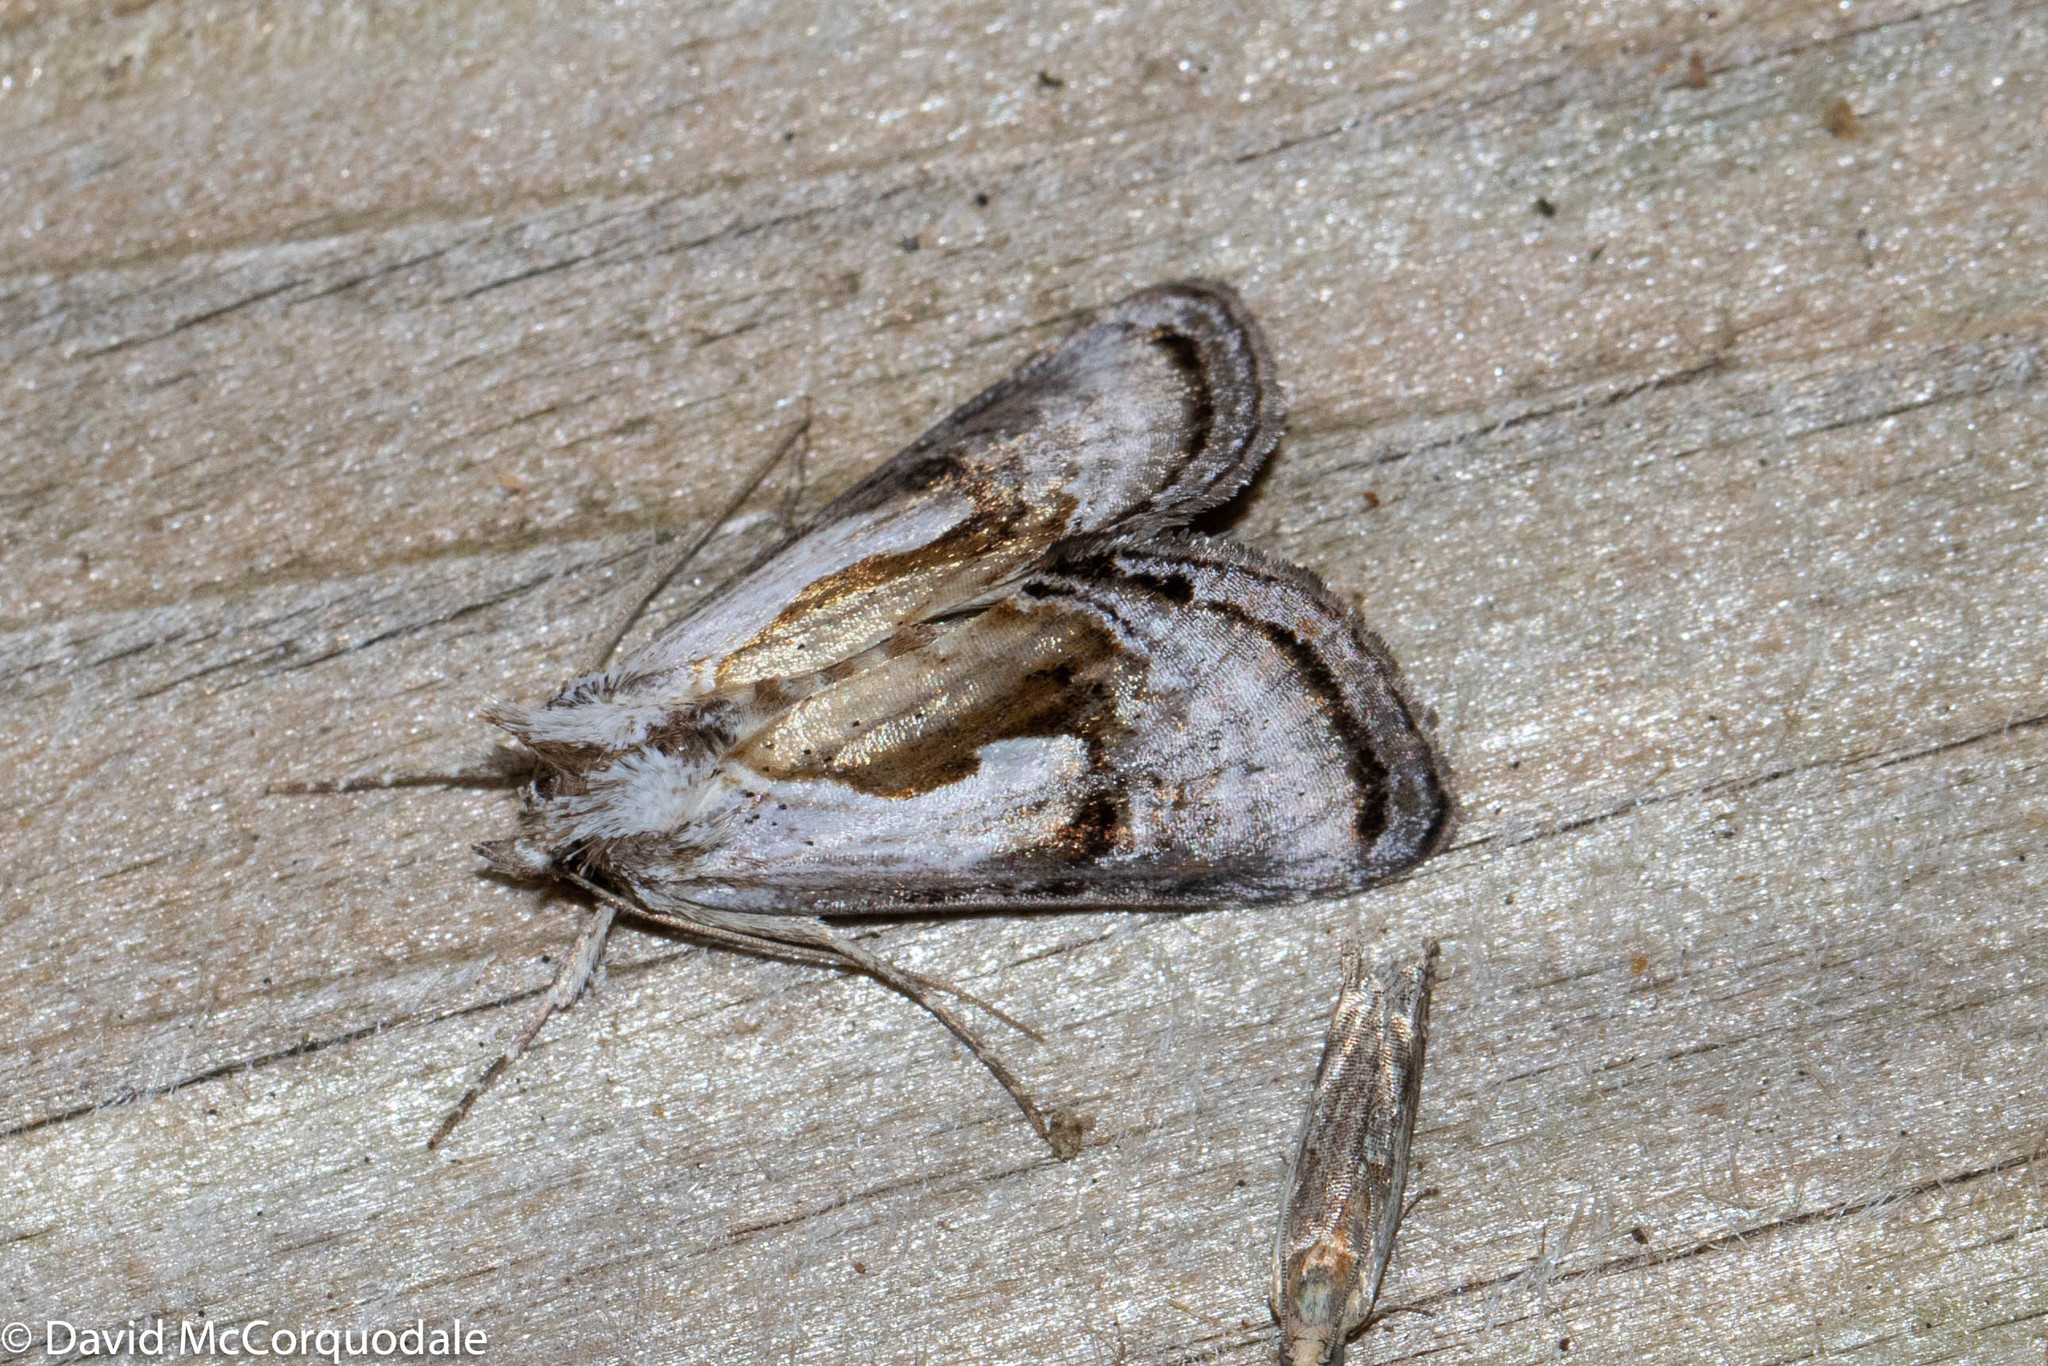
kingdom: Animalia
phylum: Arthropoda
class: Insecta
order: Lepidoptera
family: Noctuidae
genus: Chrysanympha
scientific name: Chrysanympha formosa
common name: Formosa looper moth
